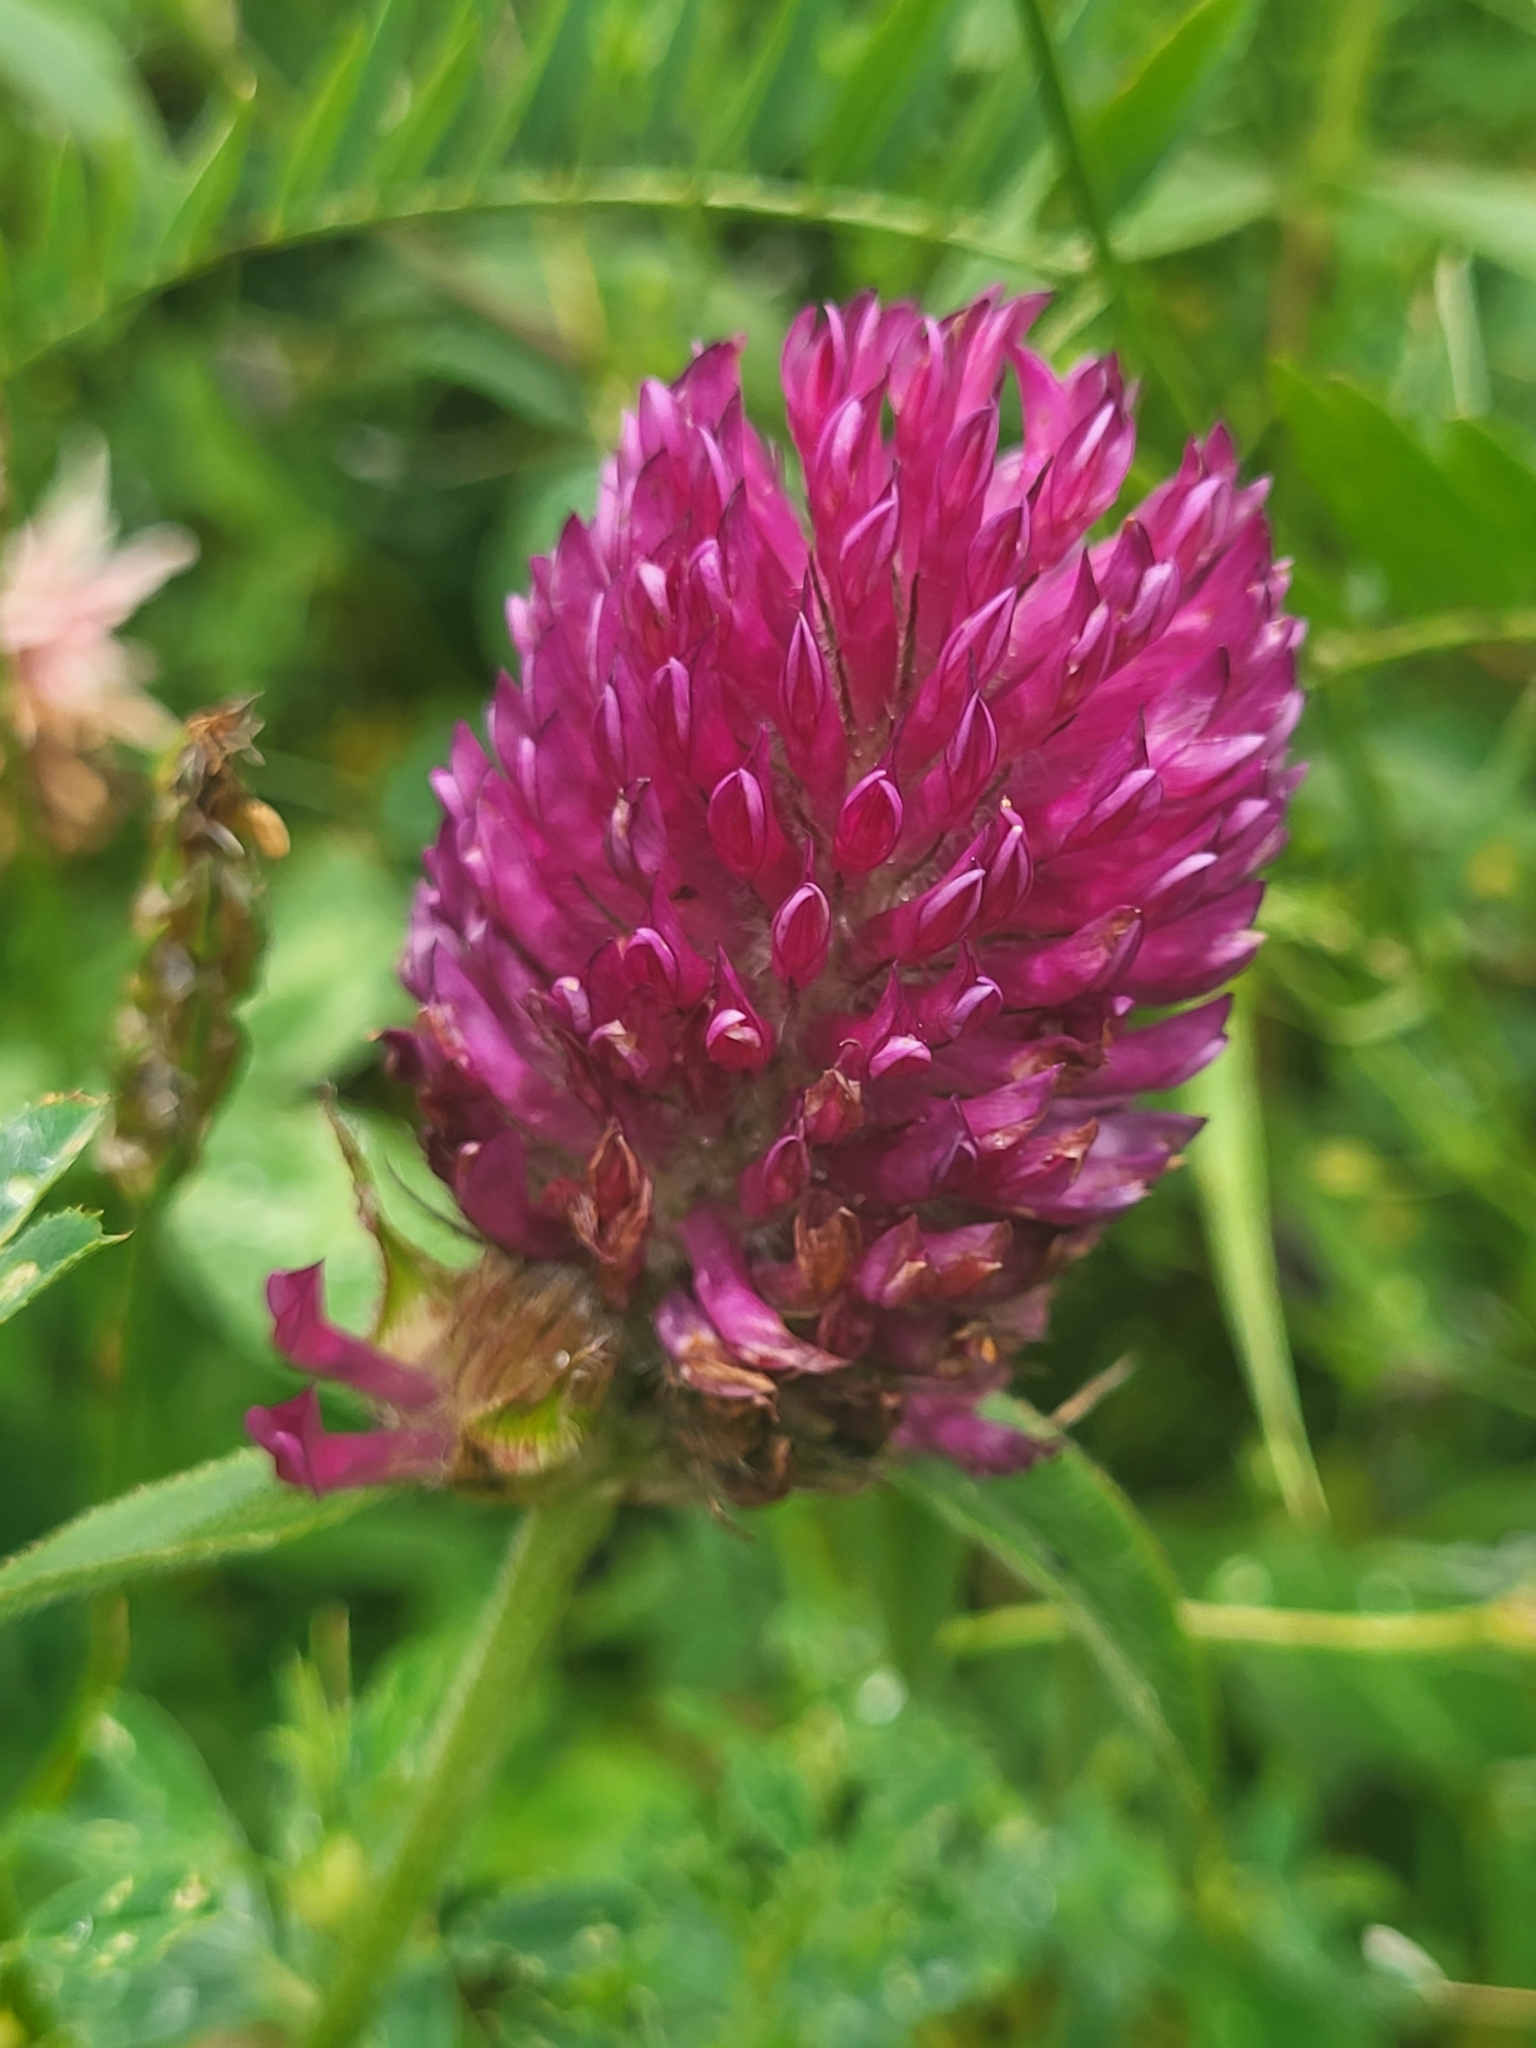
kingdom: Plantae
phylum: Tracheophyta
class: Magnoliopsida
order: Fabales
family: Fabaceae
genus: Trifolium
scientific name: Trifolium alpestre
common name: Owl-head clover
